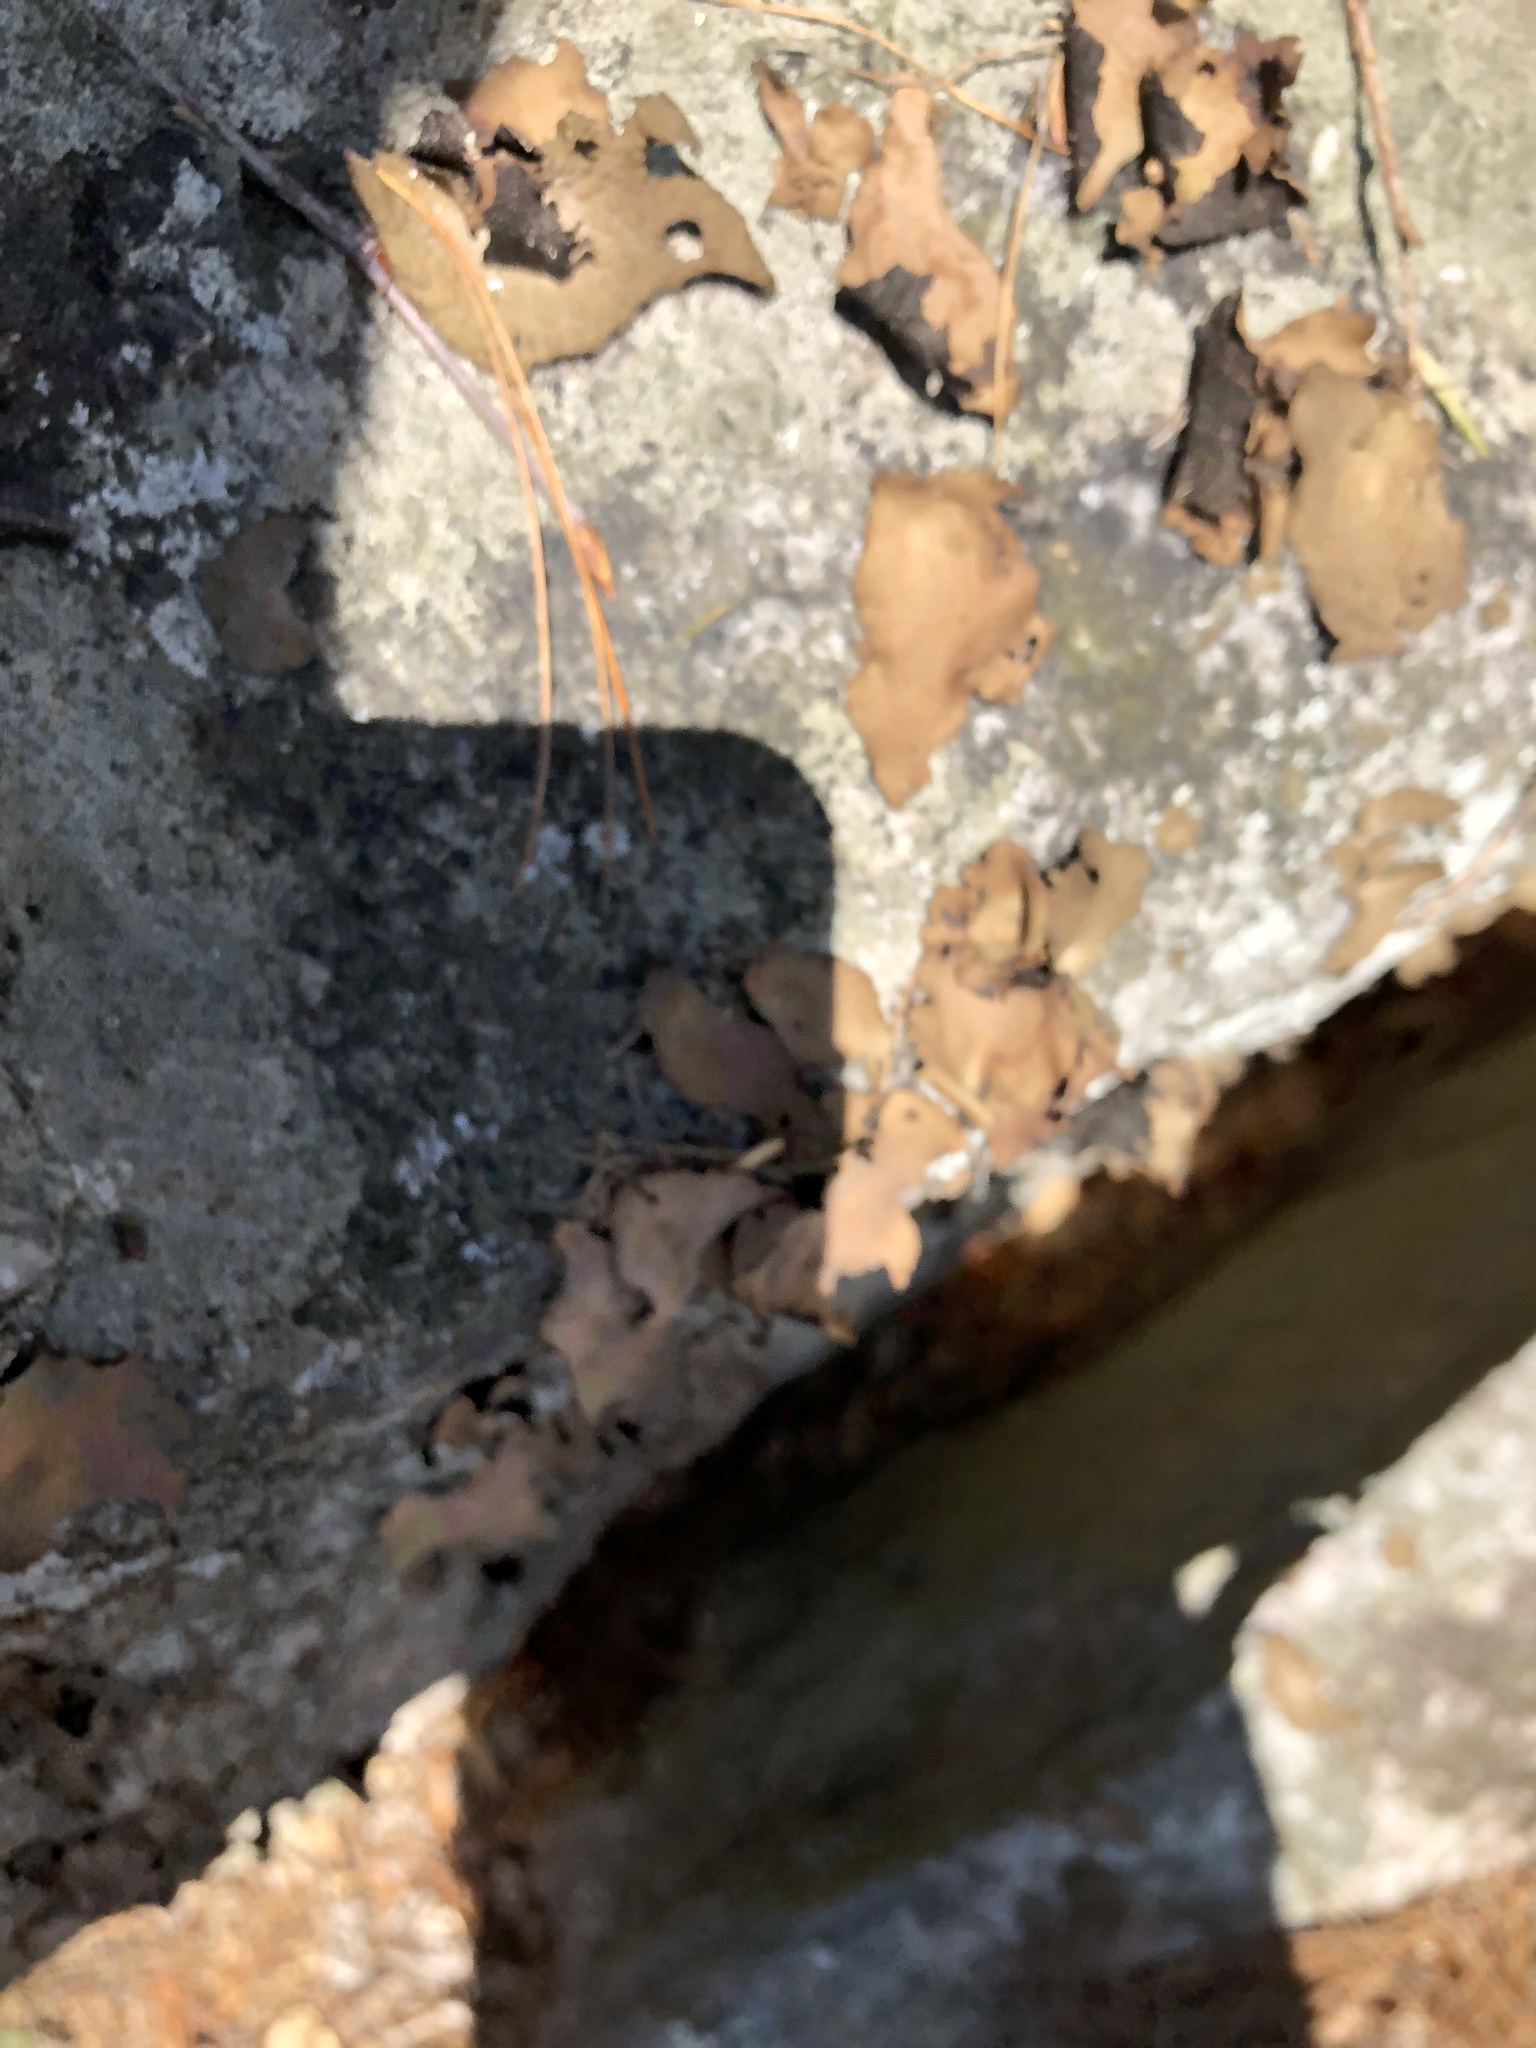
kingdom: Fungi
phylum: Ascomycota
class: Lecanoromycetes
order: Umbilicariales
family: Umbilicariaceae
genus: Umbilicaria
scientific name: Umbilicaria mammulata
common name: Smooth rock tripe
